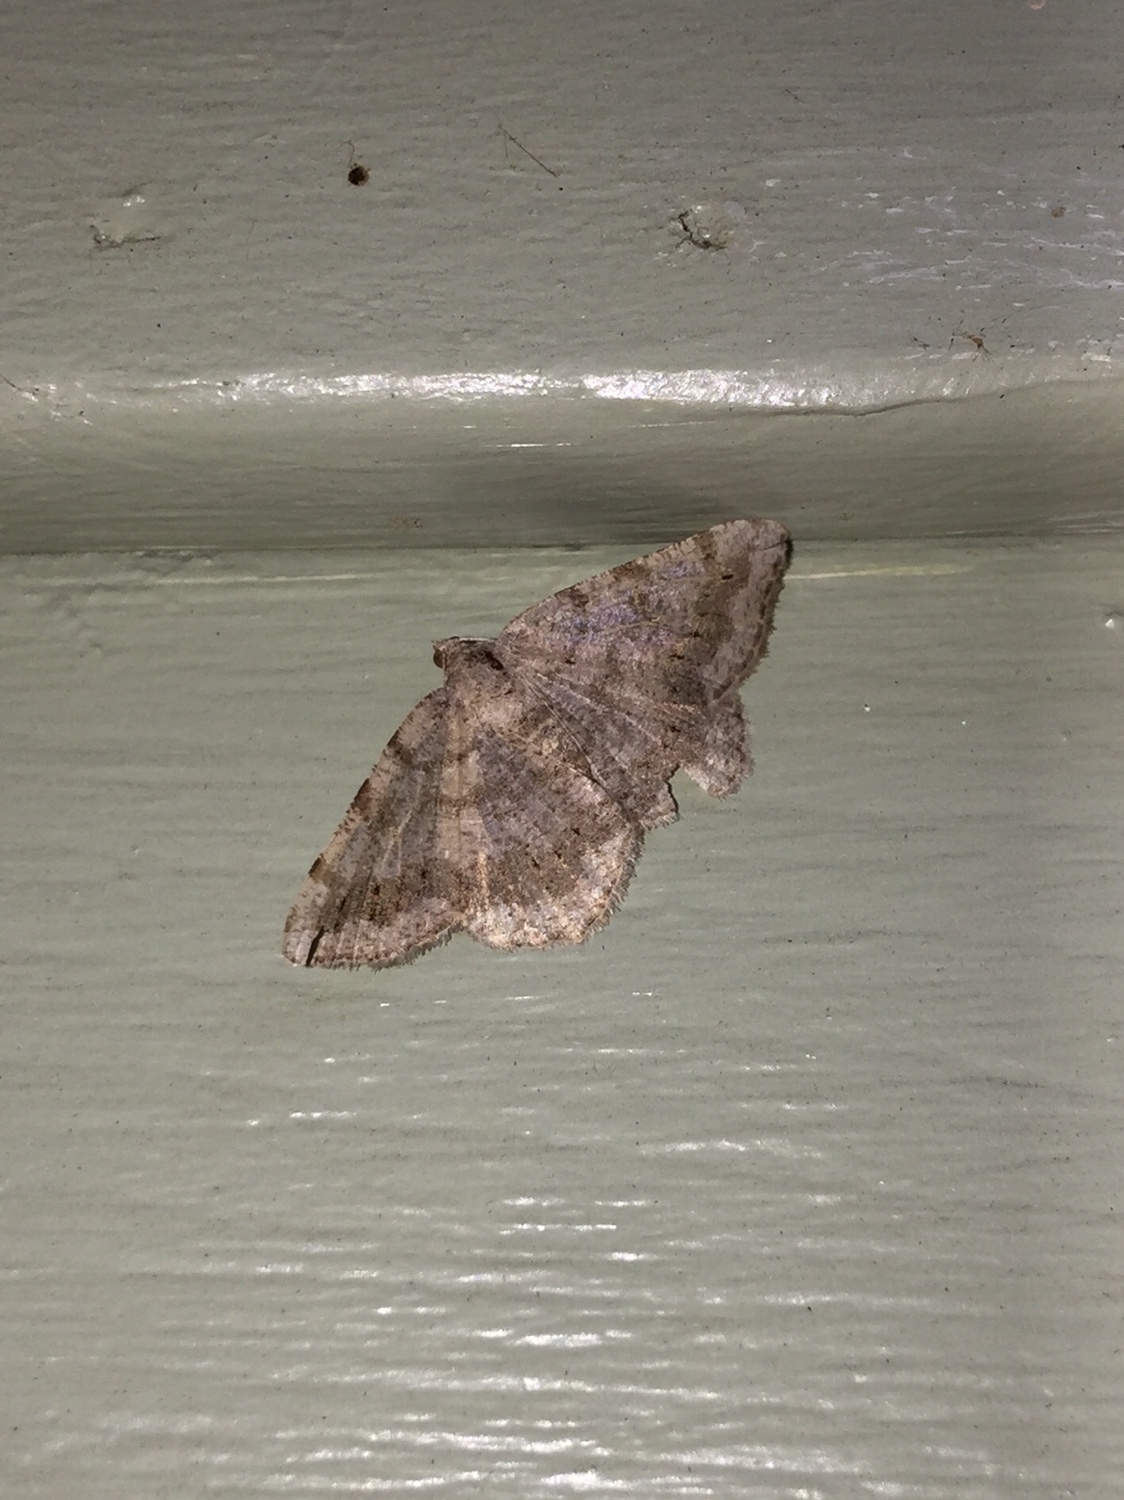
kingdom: Animalia
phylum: Arthropoda
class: Insecta
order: Lepidoptera
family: Geometridae
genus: Digrammia
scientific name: Digrammia ocellinata
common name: Faint-spotted angle
